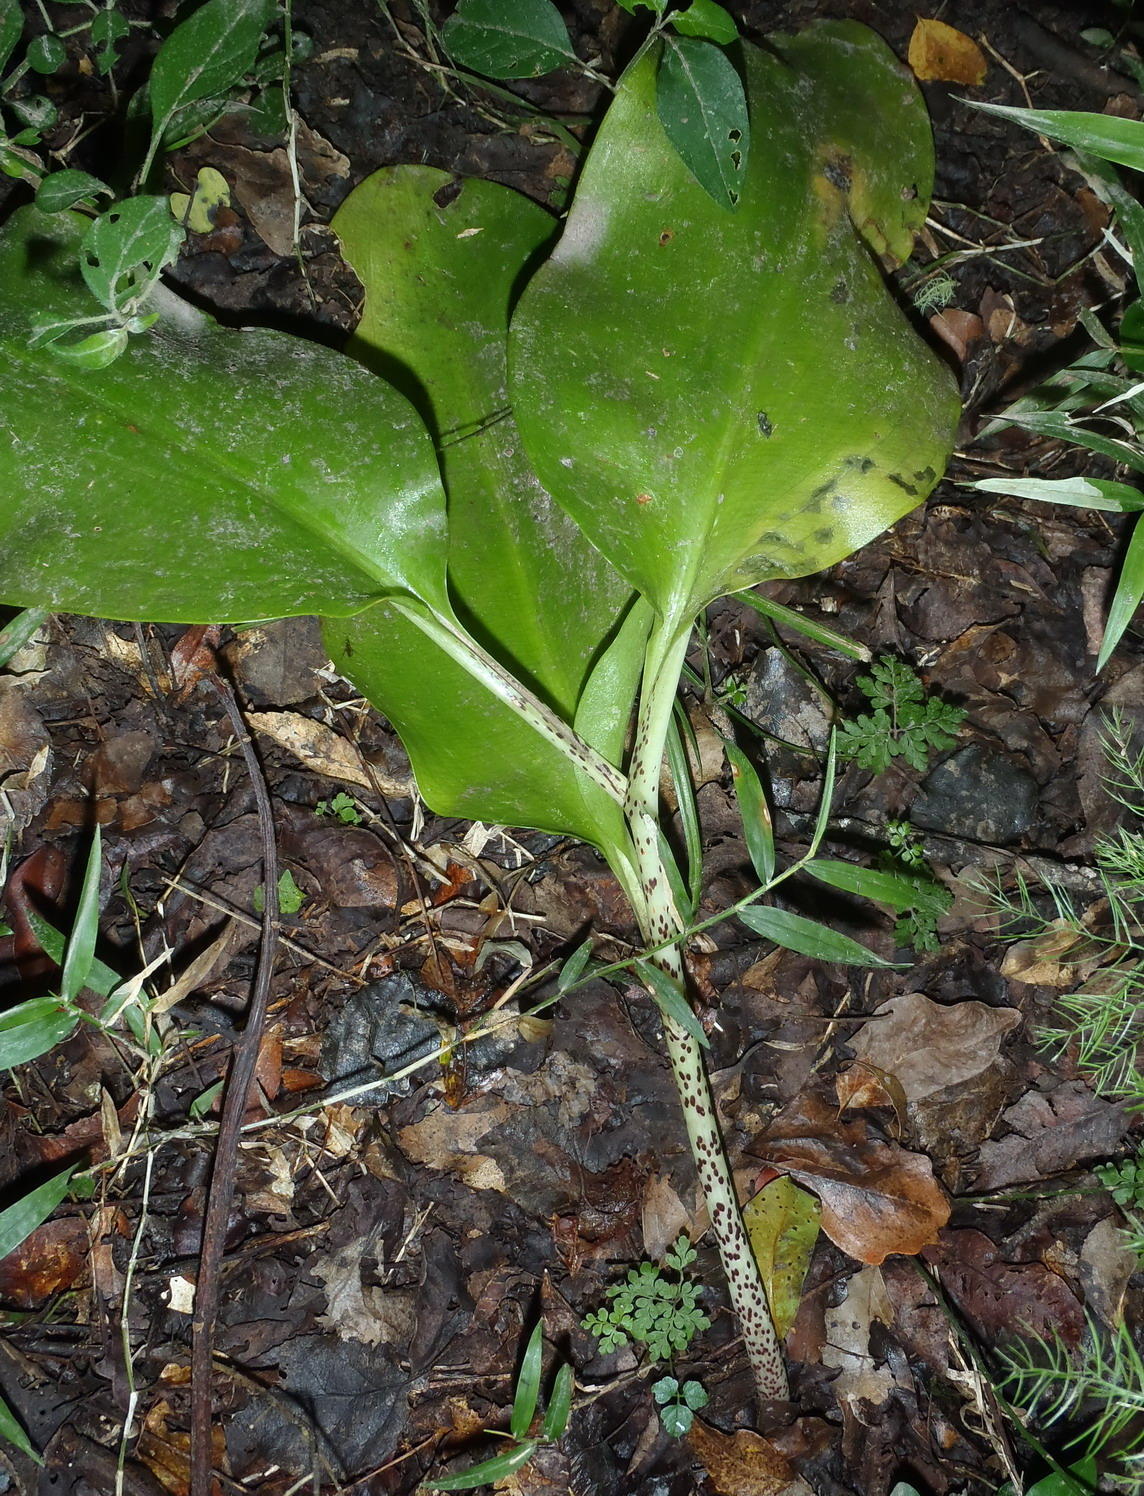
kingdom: Plantae
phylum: Tracheophyta
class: Liliopsida
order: Asparagales
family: Amaryllidaceae
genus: Scadoxus
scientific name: Scadoxus puniceus
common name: Royal-paintbrush
